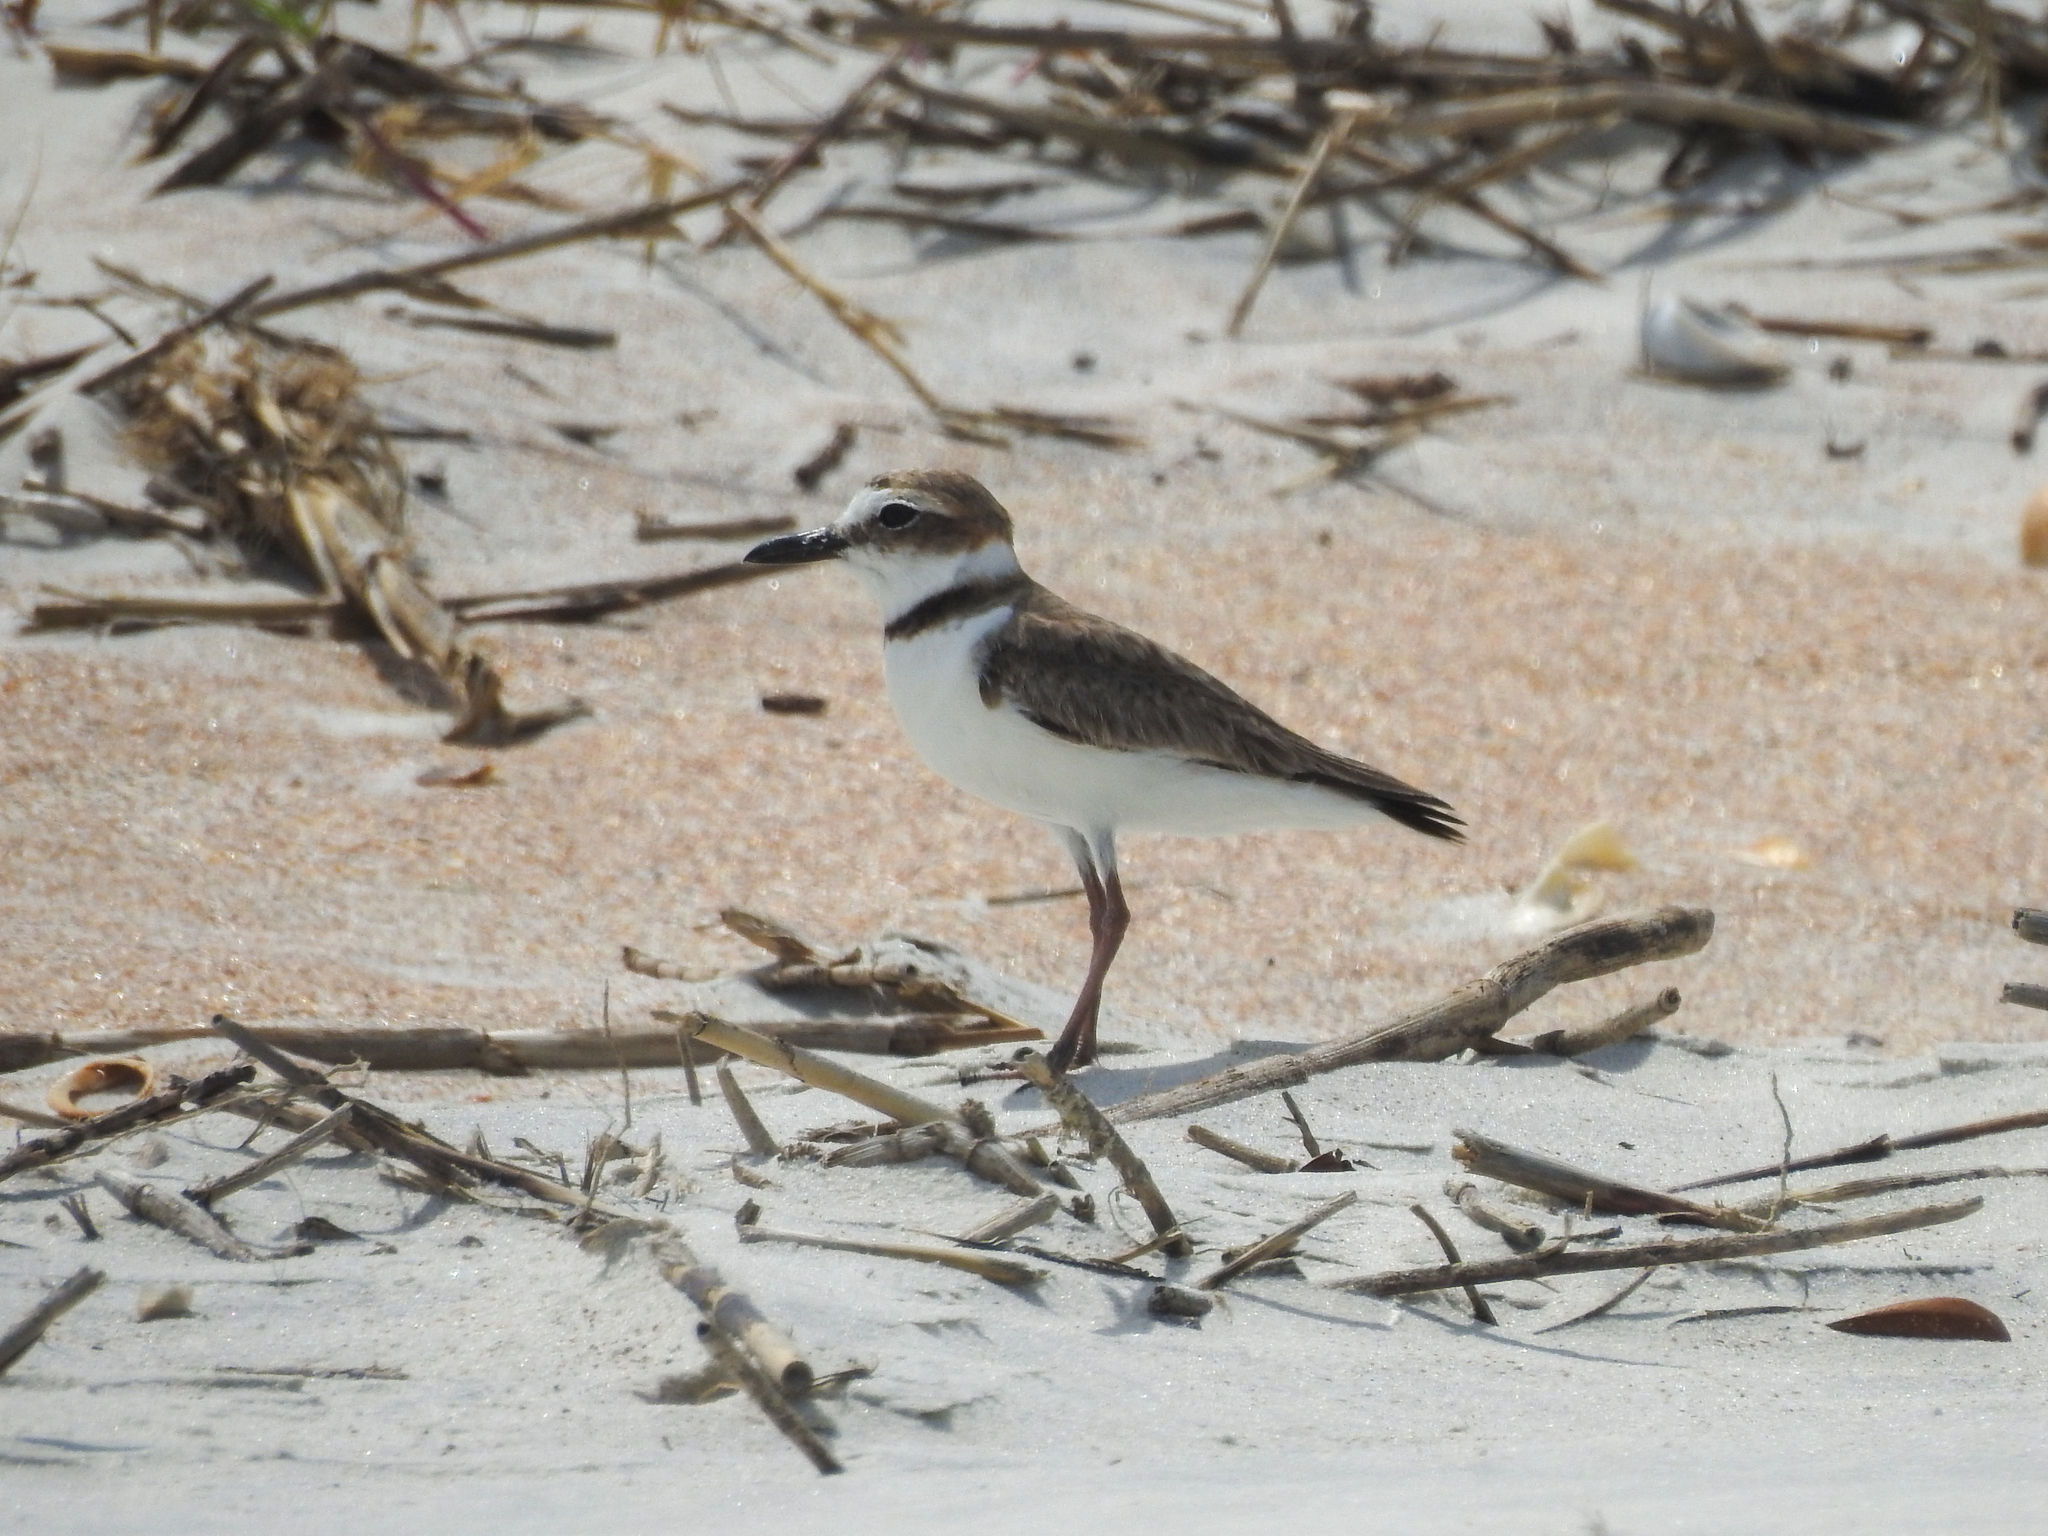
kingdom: Animalia
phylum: Chordata
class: Aves
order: Charadriiformes
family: Charadriidae
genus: Anarhynchus
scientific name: Anarhynchus
